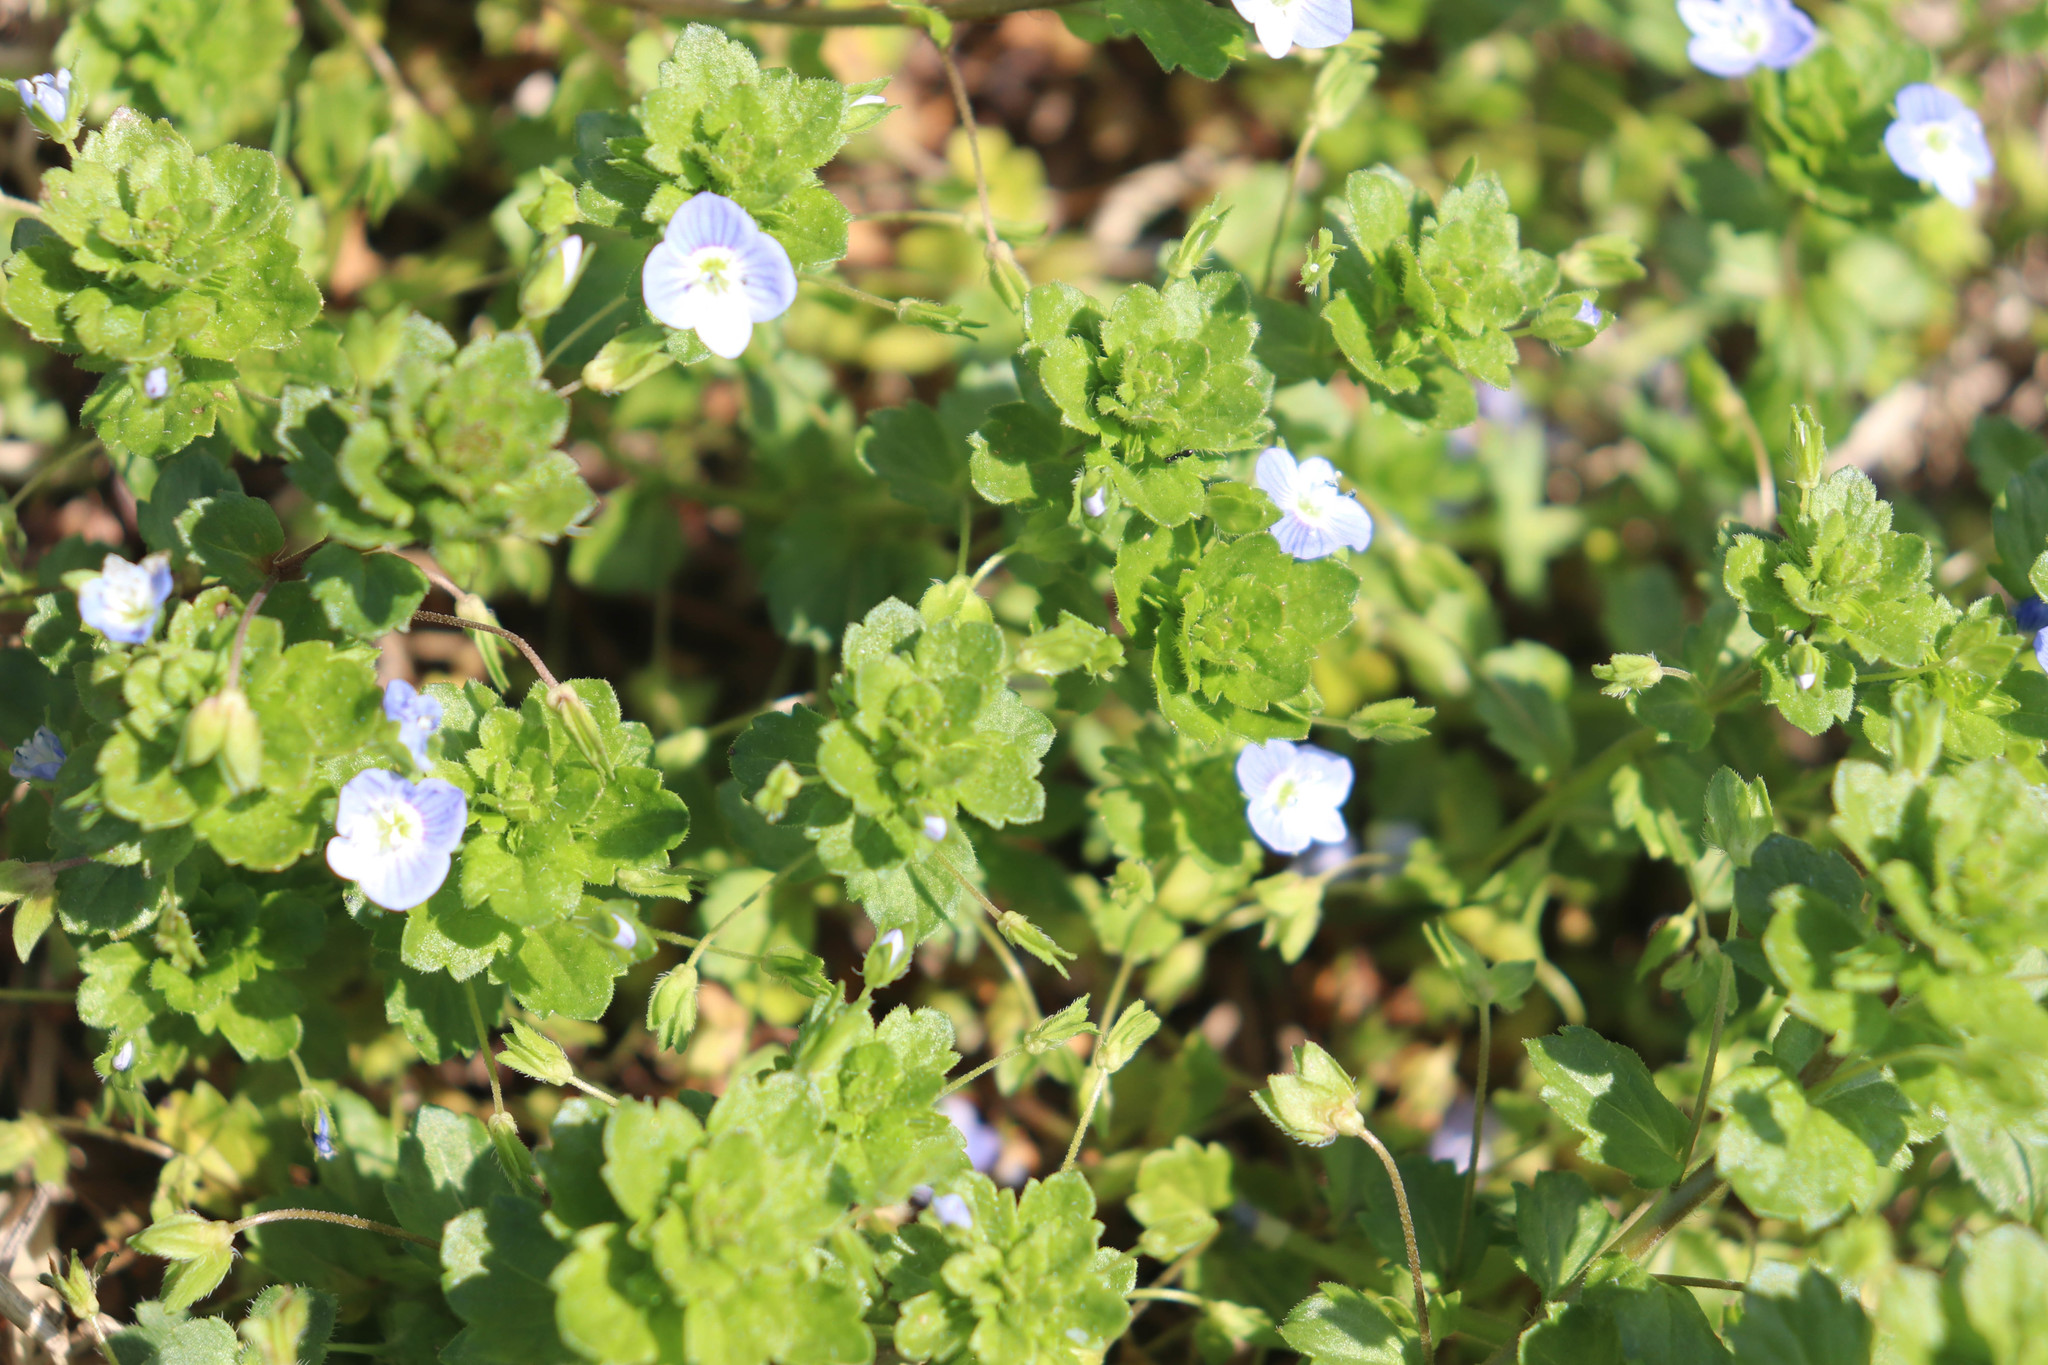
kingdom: Plantae
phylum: Tracheophyta
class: Magnoliopsida
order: Lamiales
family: Plantaginaceae
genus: Veronica
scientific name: Veronica persica
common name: Common field-speedwell
